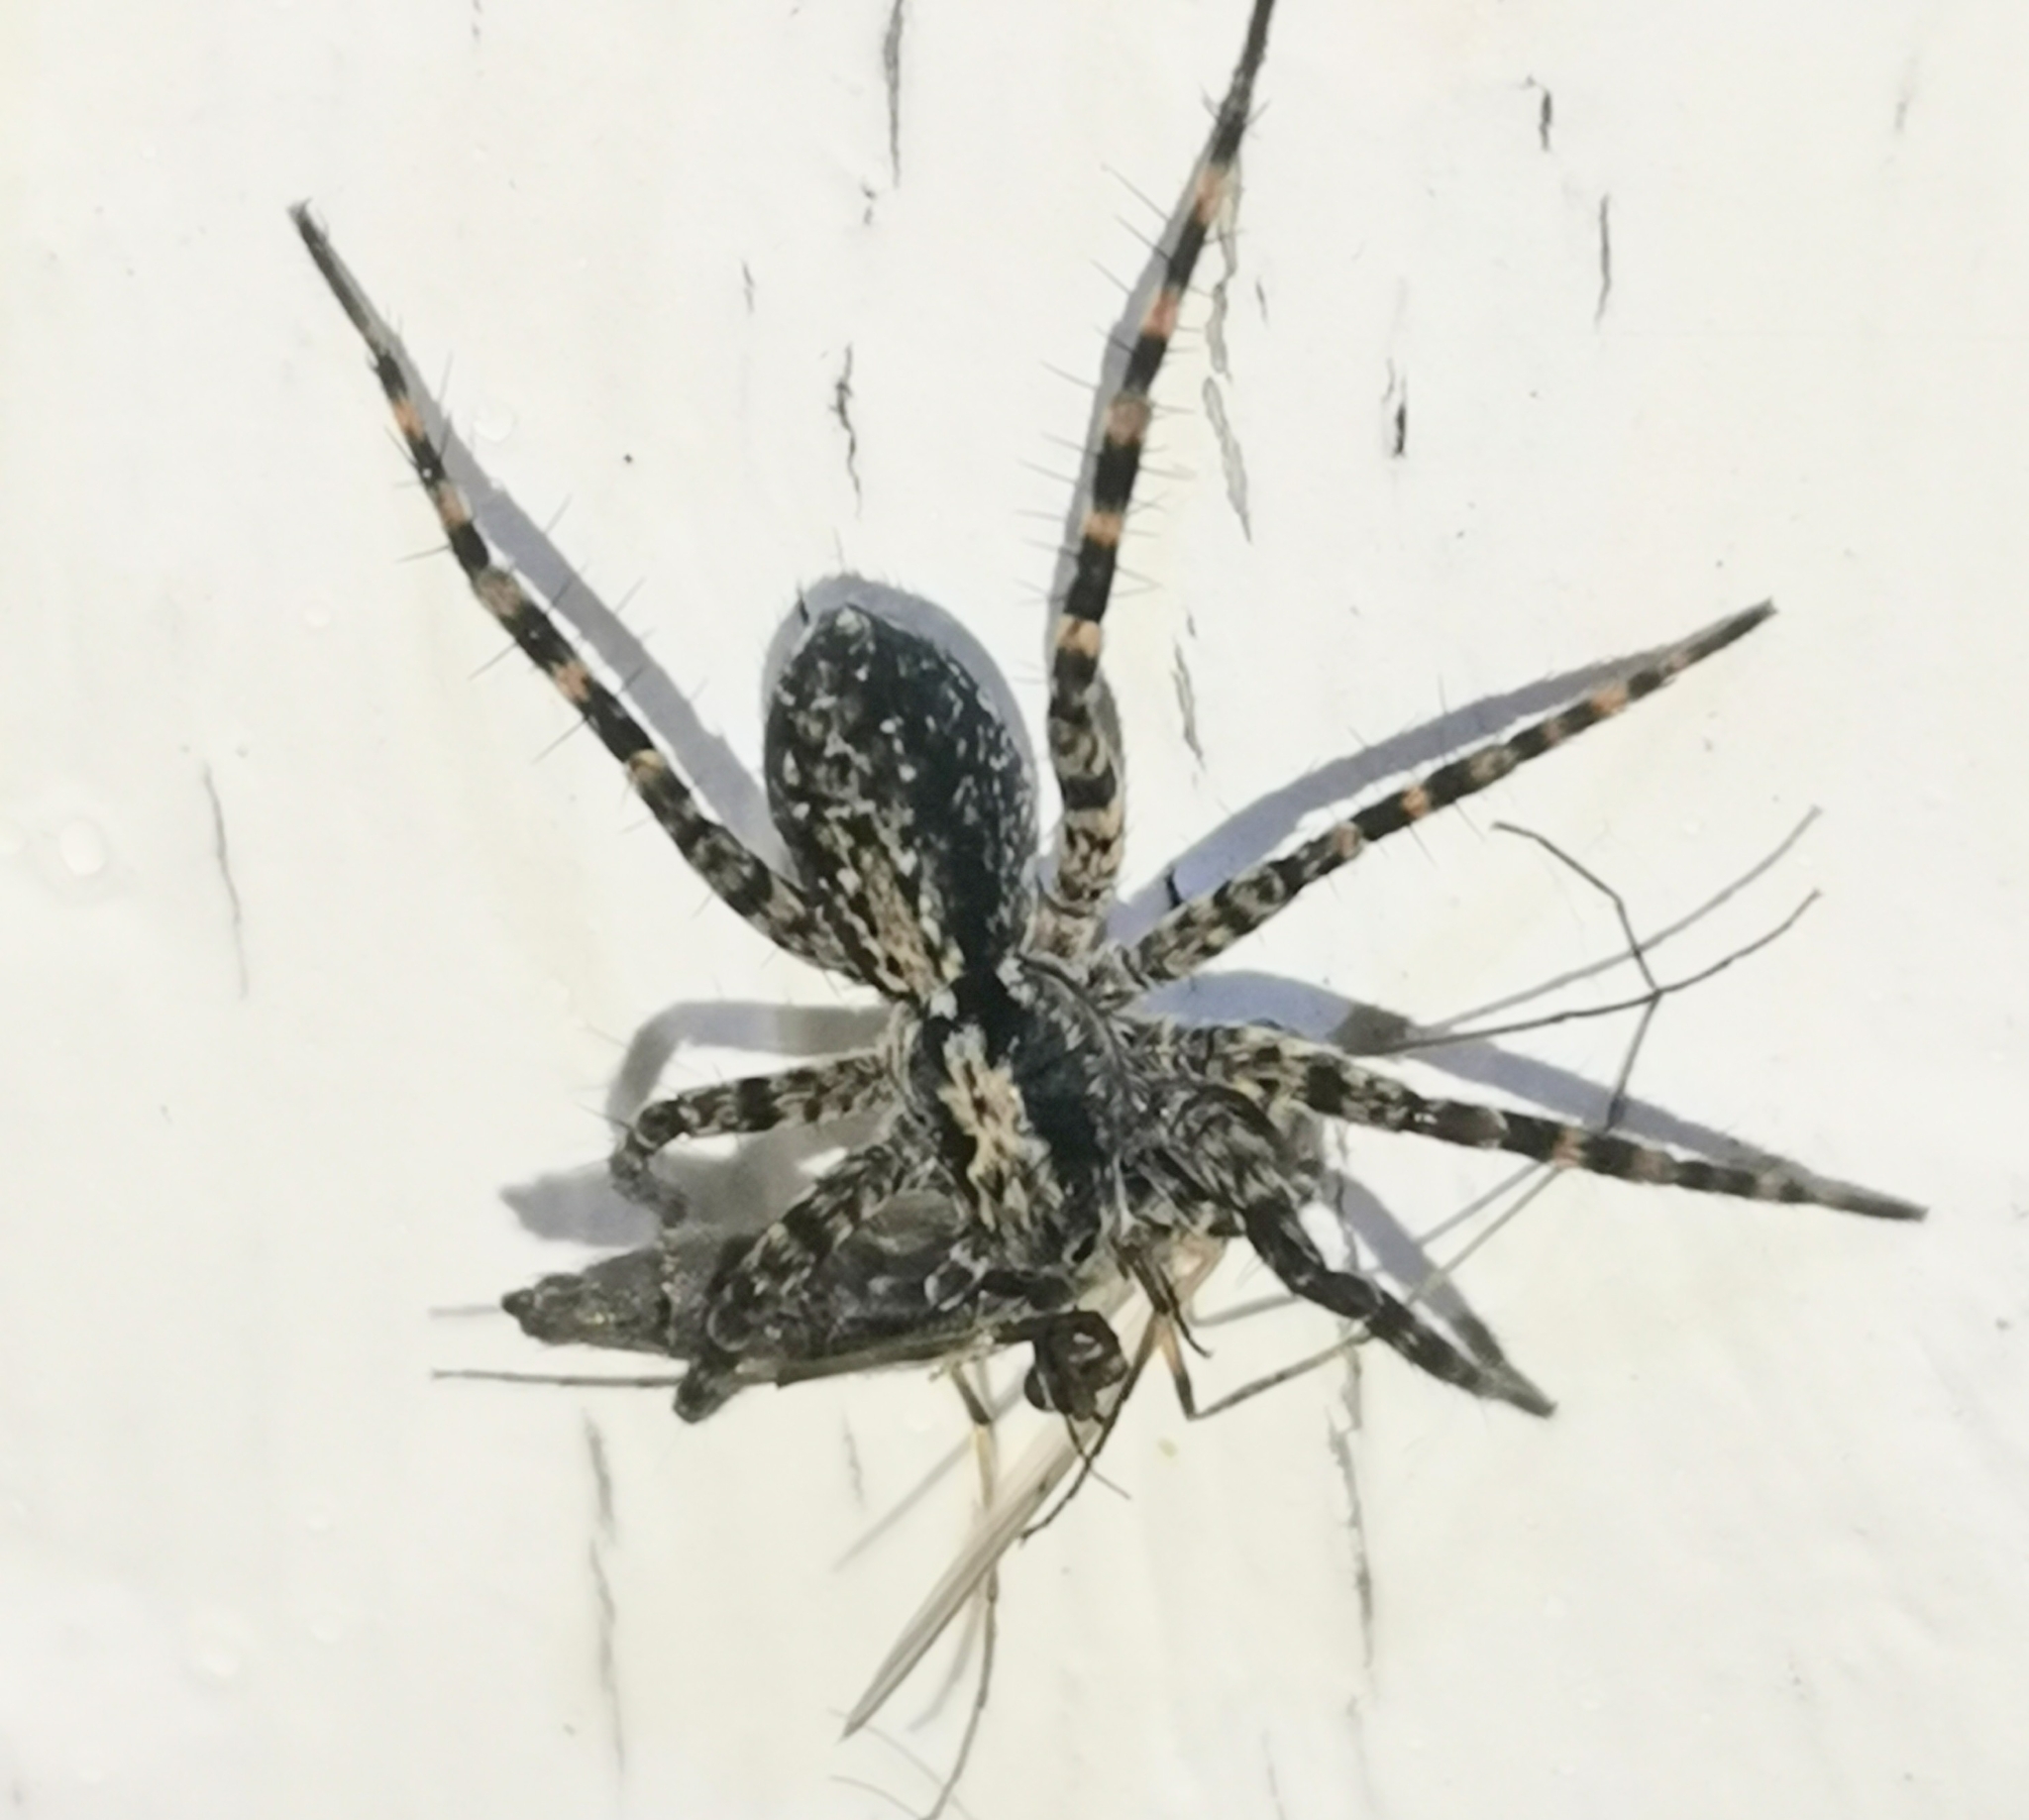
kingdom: Animalia
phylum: Arthropoda
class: Arachnida
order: Araneae
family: Lycosidae
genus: Acantholycosa
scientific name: Acantholycosa lignaria
